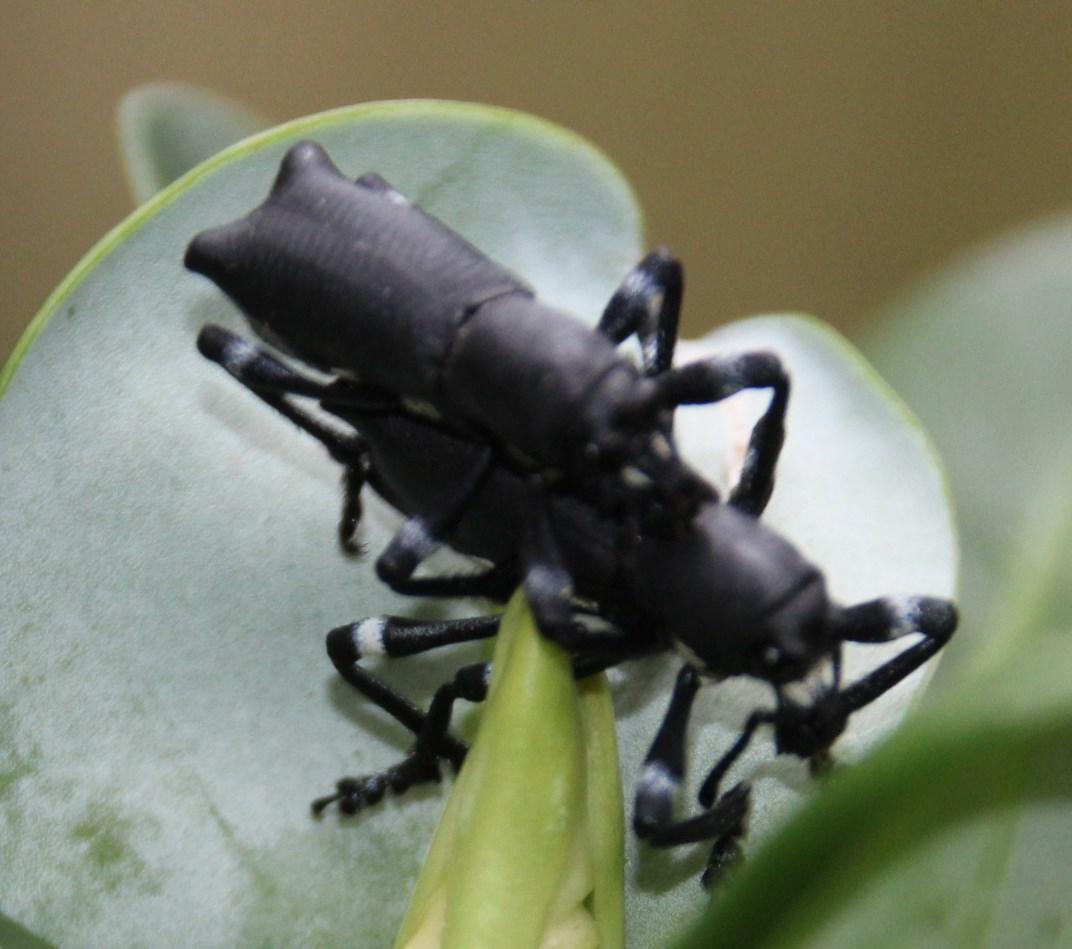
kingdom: Animalia
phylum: Arthropoda
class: Insecta
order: Coleoptera
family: Curculionidae
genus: Aegorhinus
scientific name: Aegorhinus
